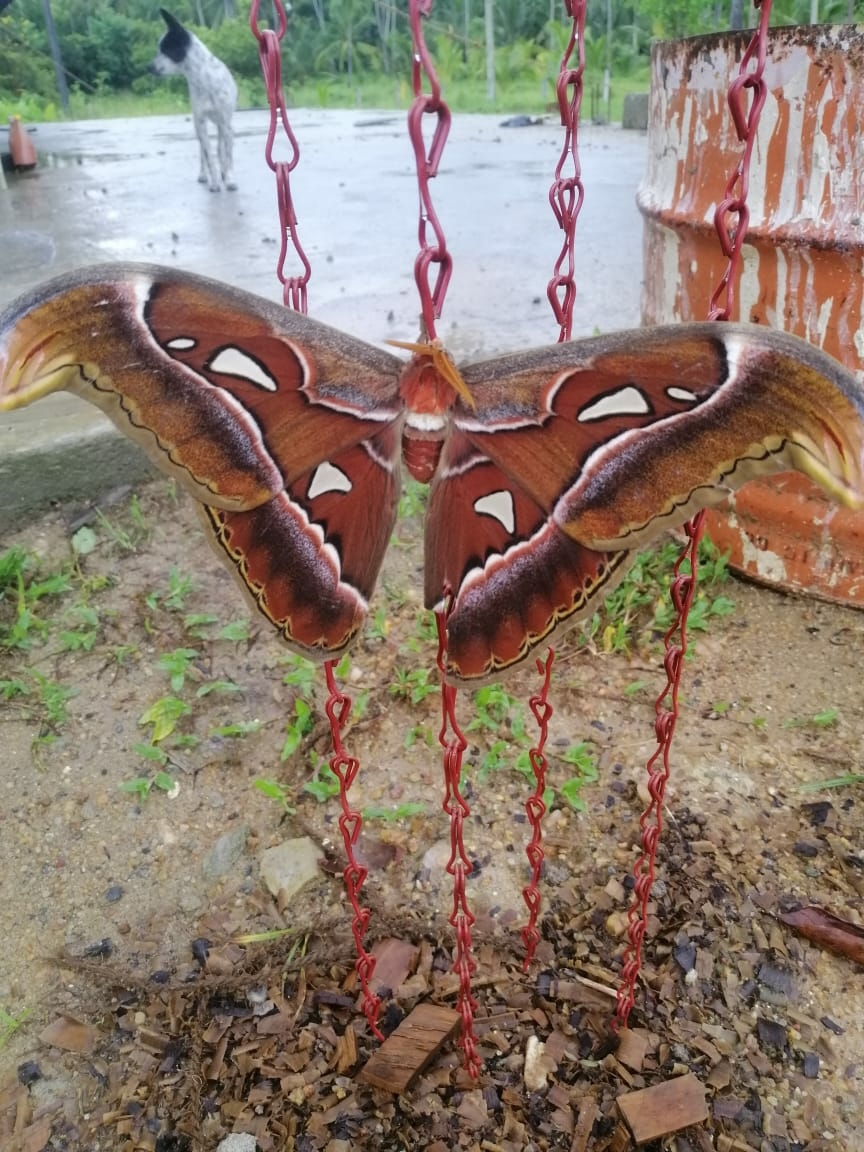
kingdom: Animalia
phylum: Arthropoda
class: Insecta
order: Lepidoptera
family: Saturniidae
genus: Attacus
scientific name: Attacus taprobanis
